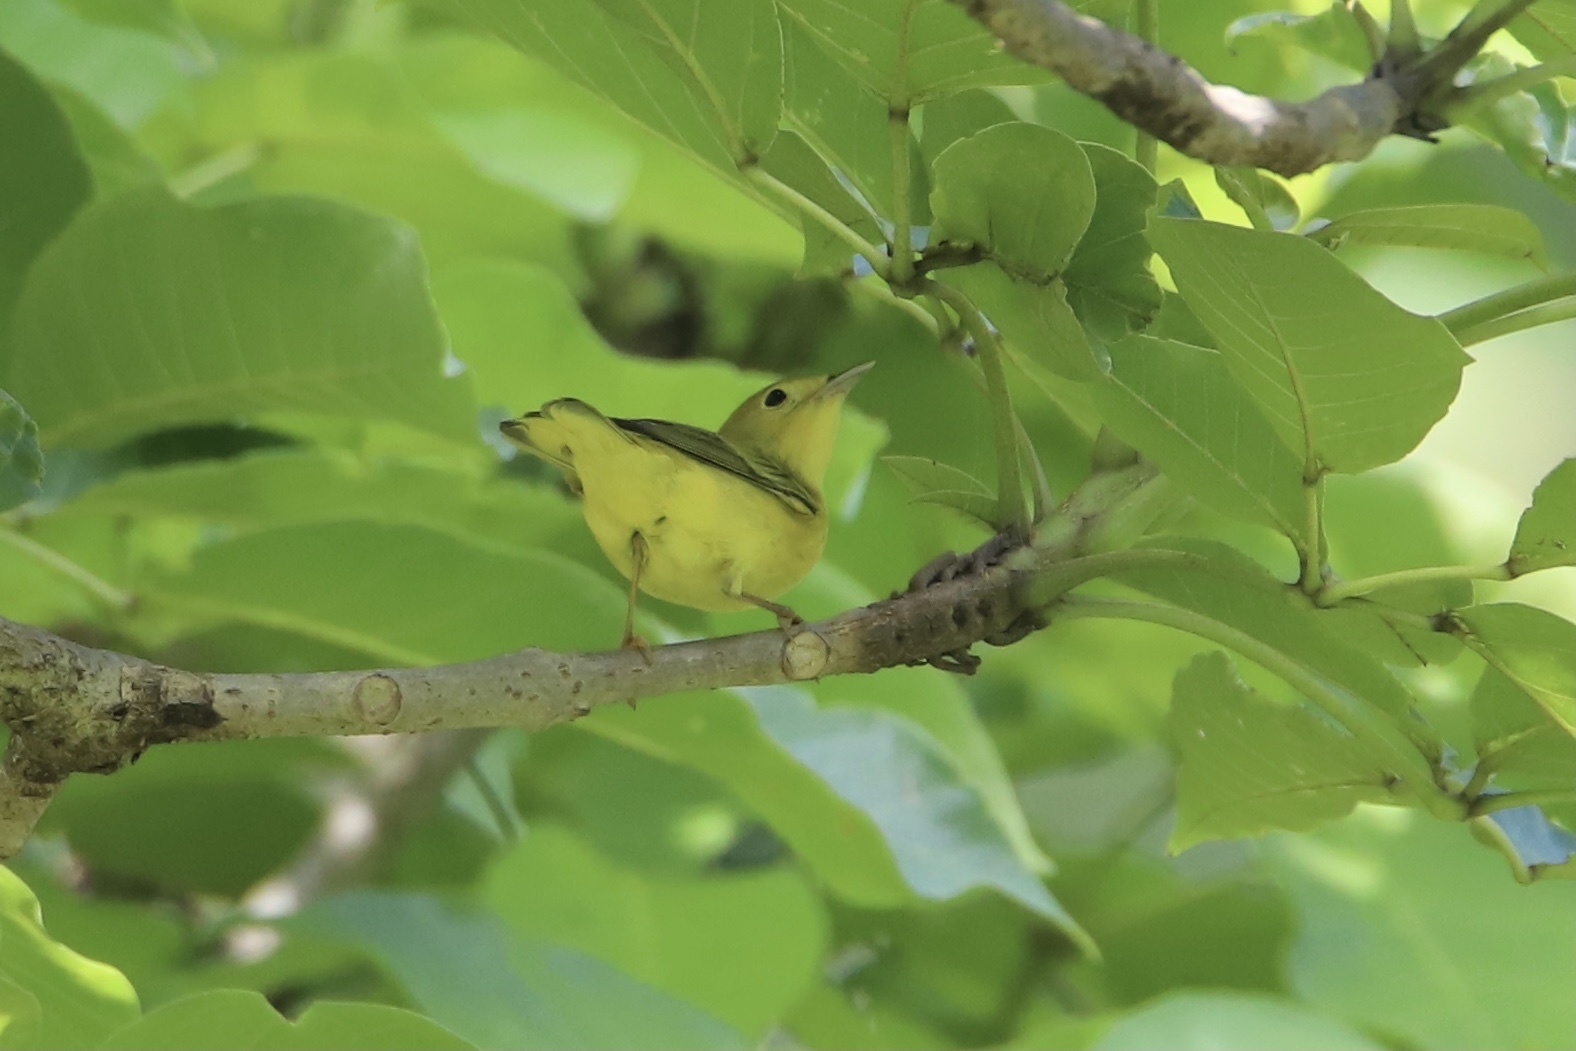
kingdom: Animalia
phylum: Chordata
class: Aves
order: Passeriformes
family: Parulidae
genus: Setophaga
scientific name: Setophaga petechia
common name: Yellow warbler
